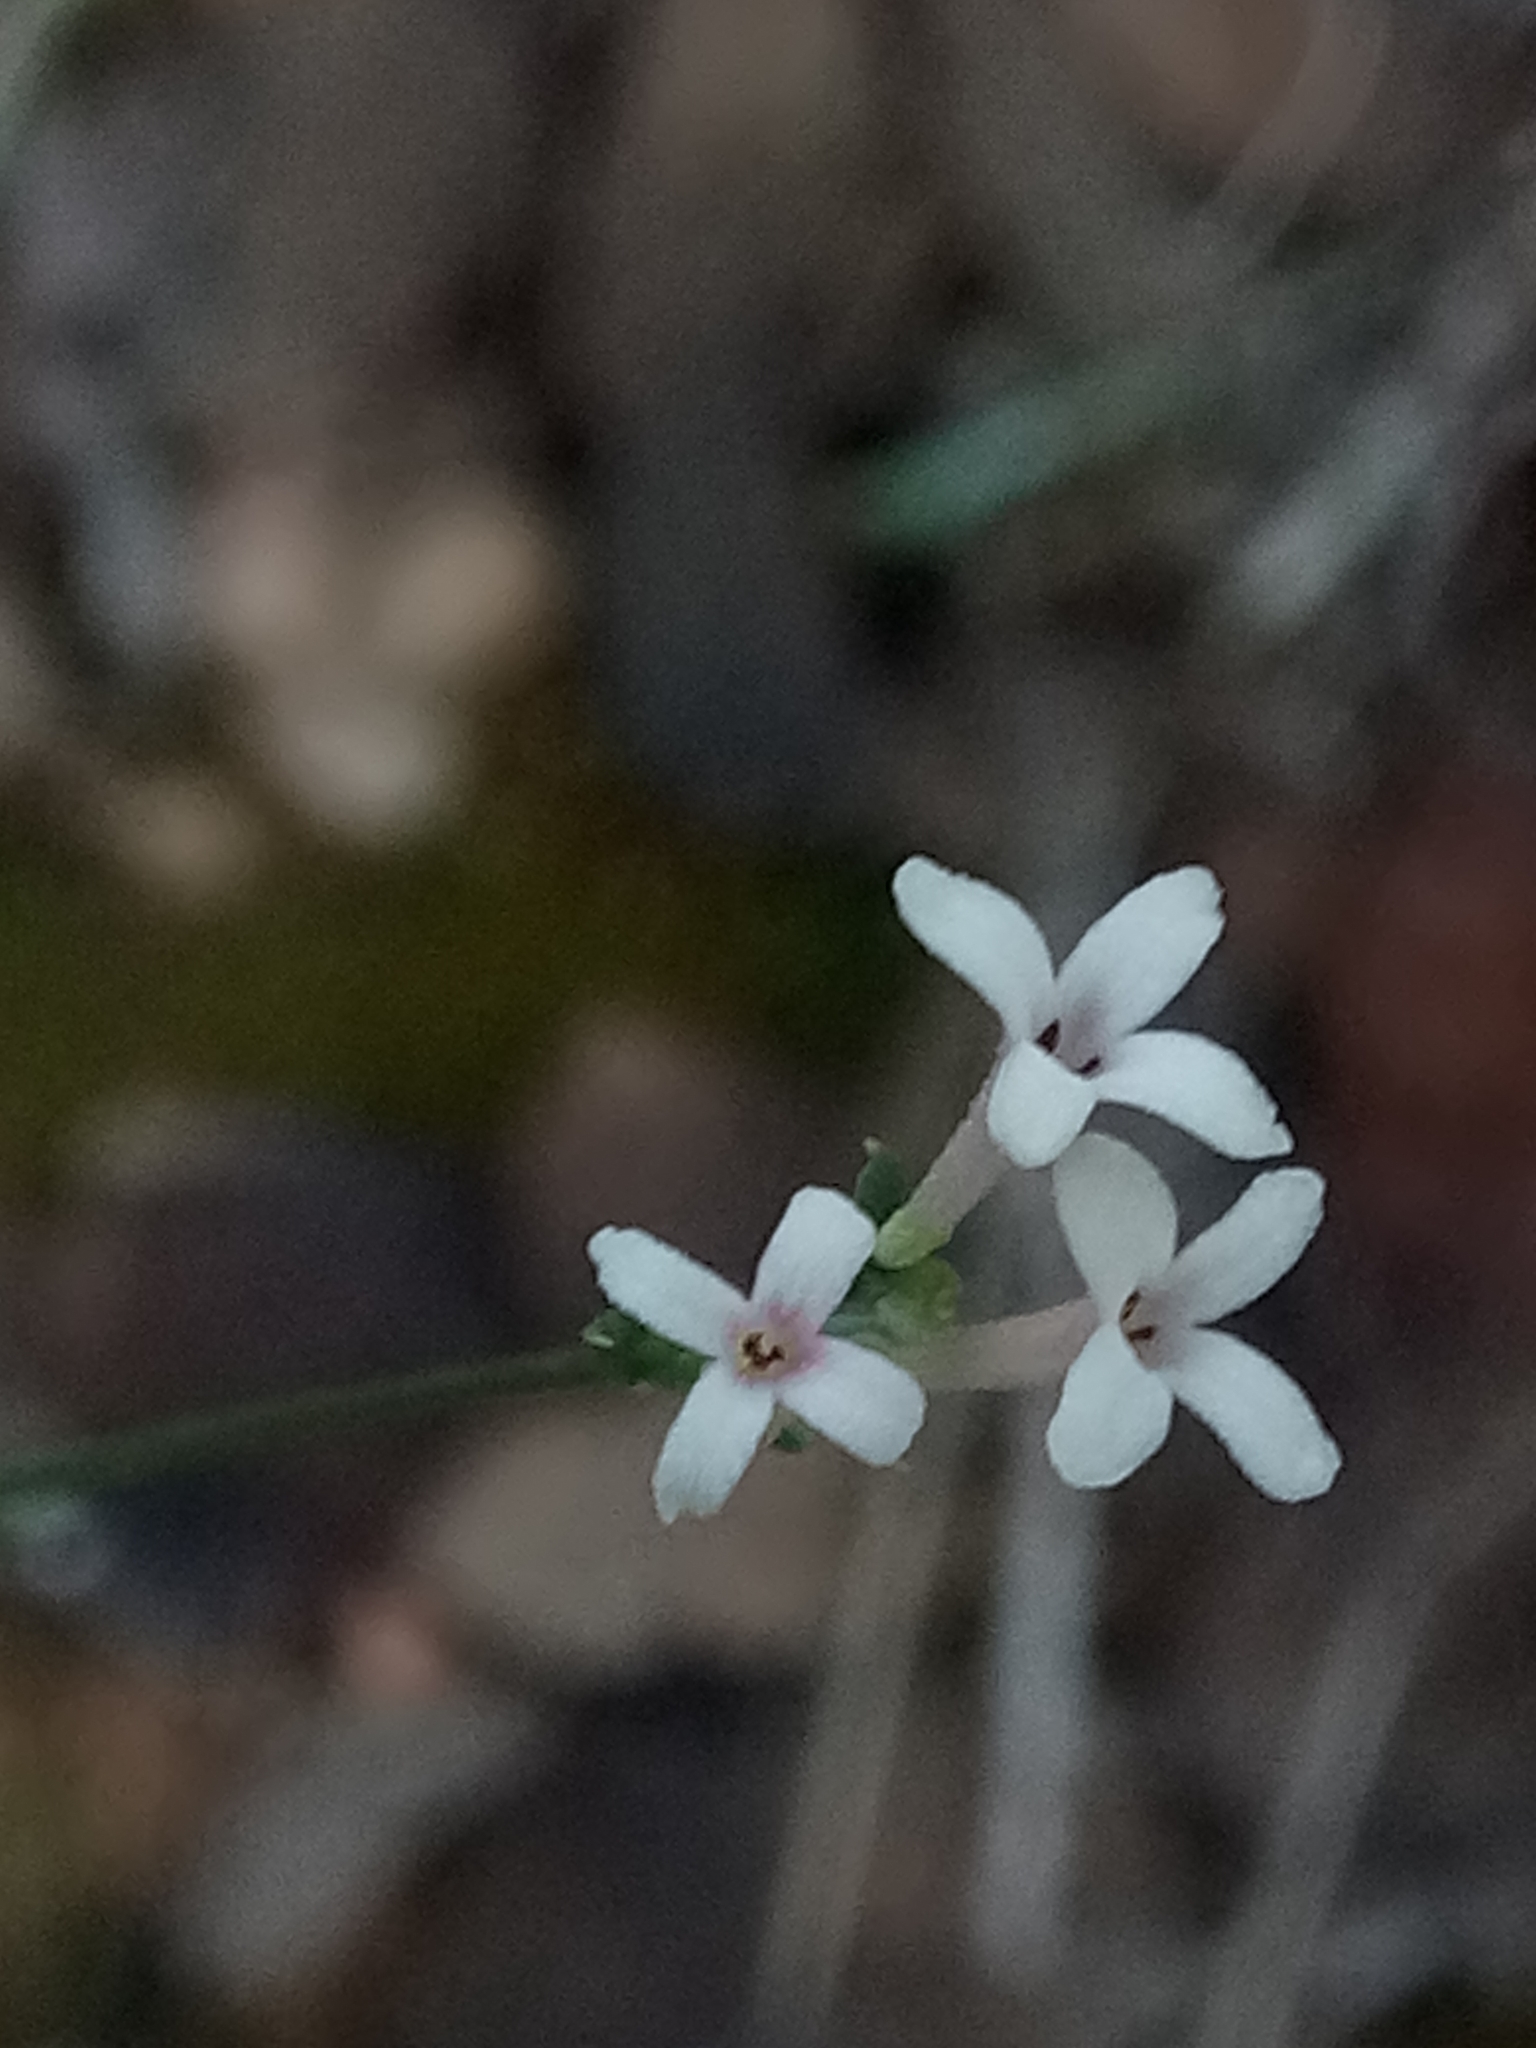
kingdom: Plantae
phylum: Tracheophyta
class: Magnoliopsida
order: Gentianales
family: Rubiaceae
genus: Cynanchica
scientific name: Cynanchica aristata
